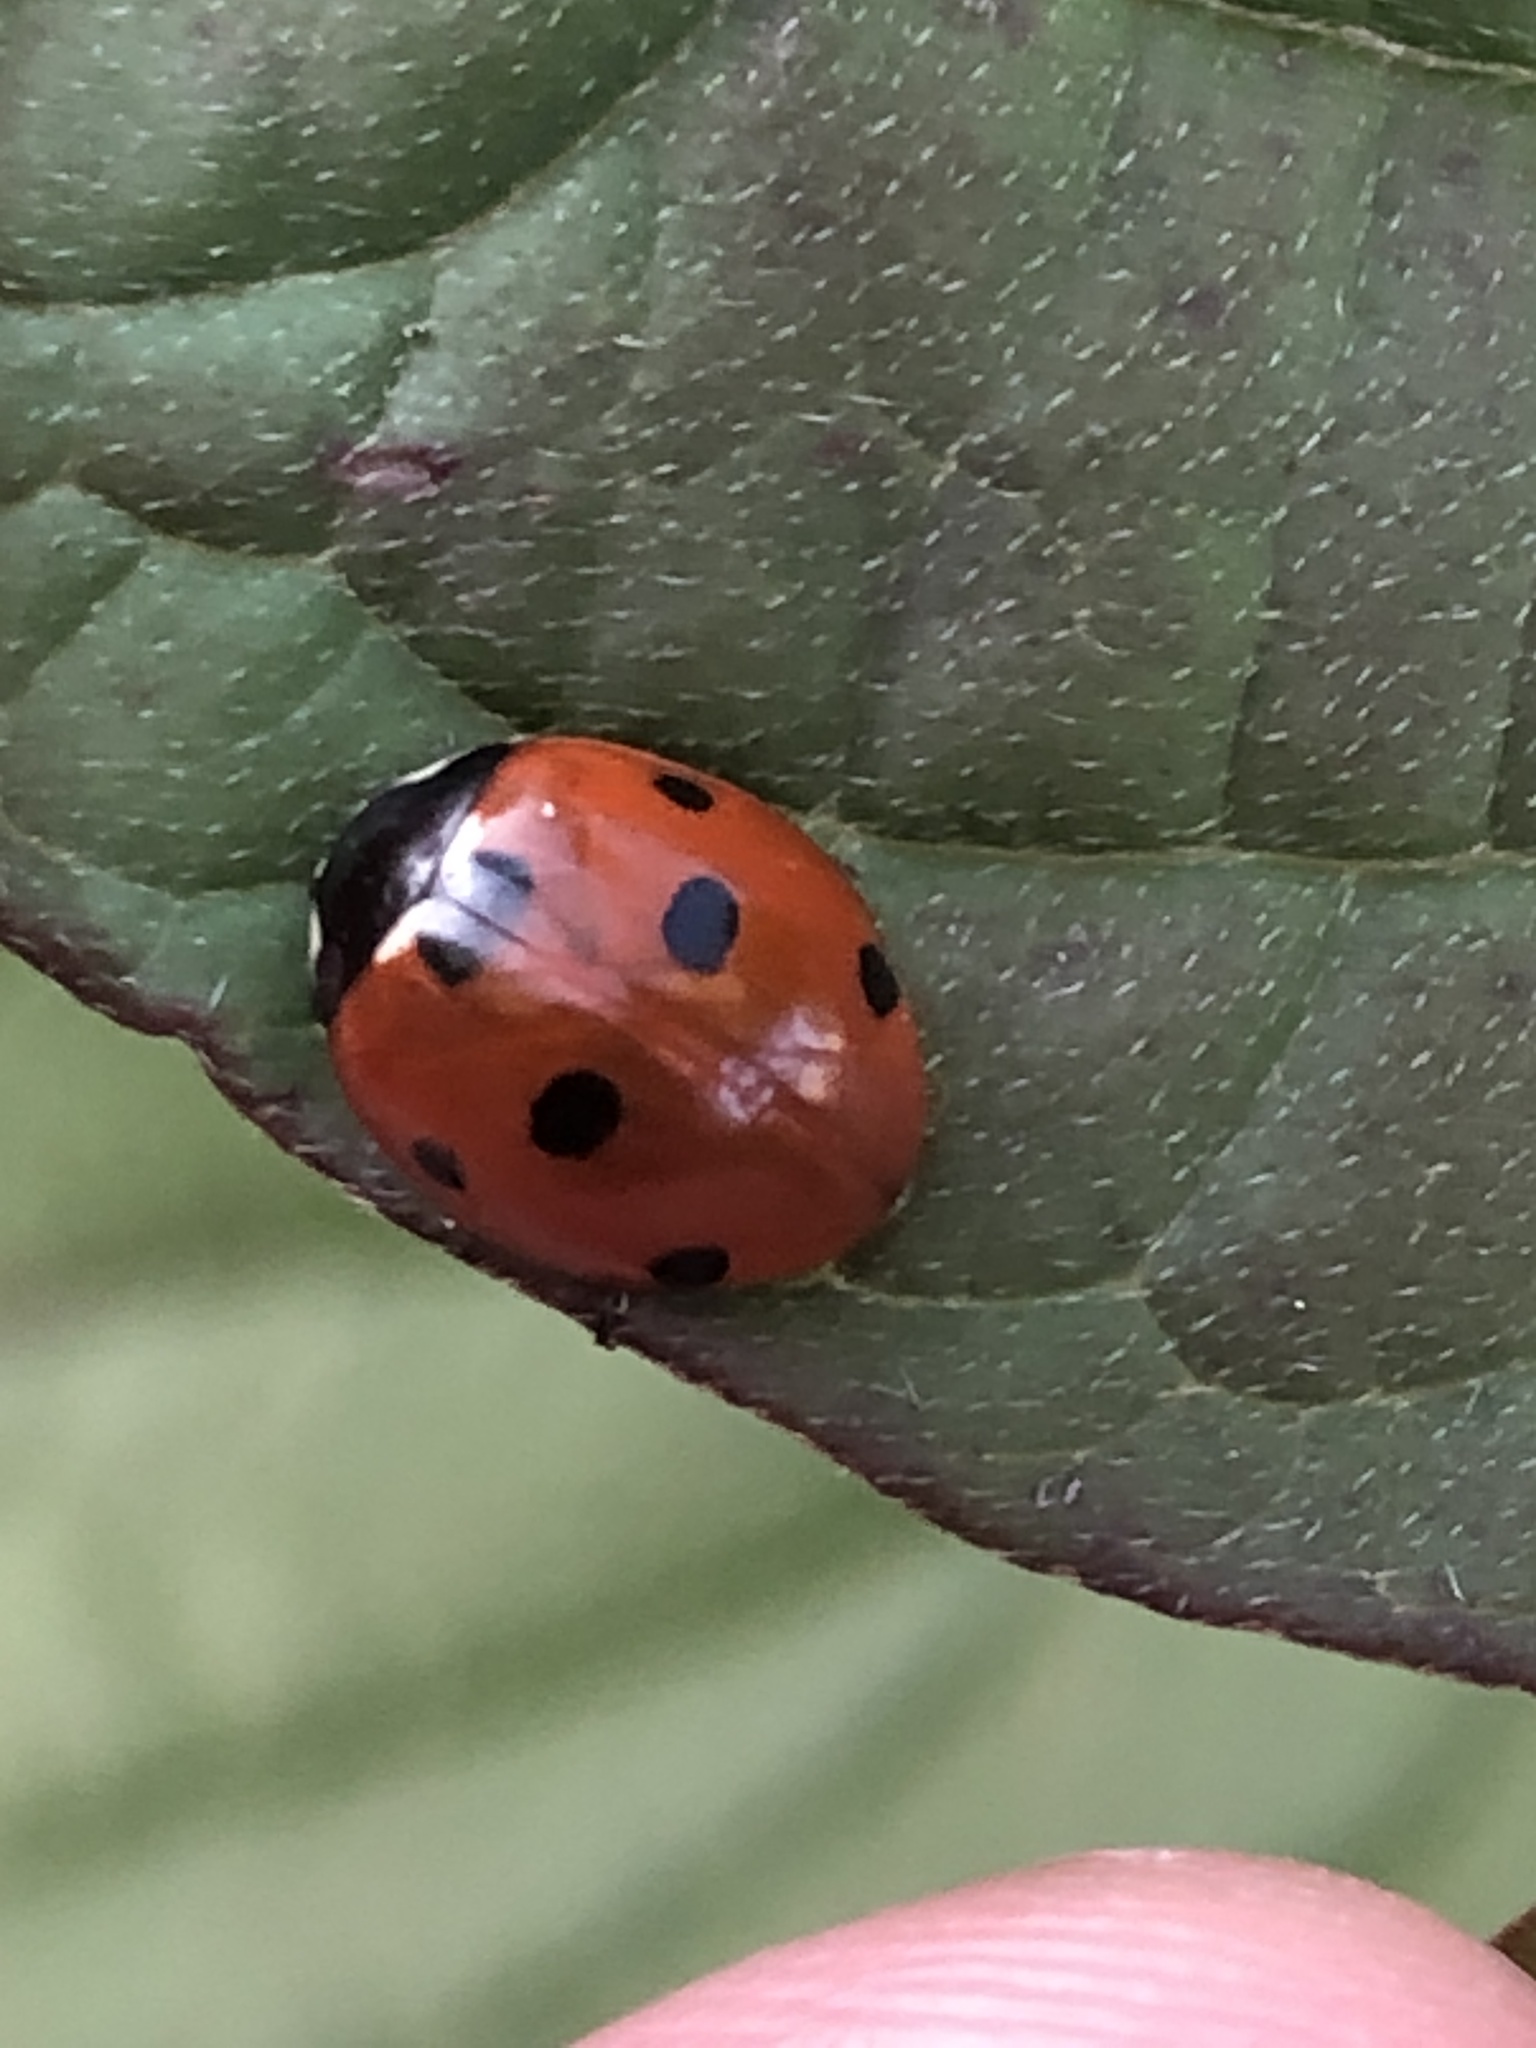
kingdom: Animalia
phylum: Arthropoda
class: Insecta
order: Coleoptera
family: Coccinellidae
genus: Coccinella
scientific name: Coccinella septempunctata
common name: Sevenspotted lady beetle
